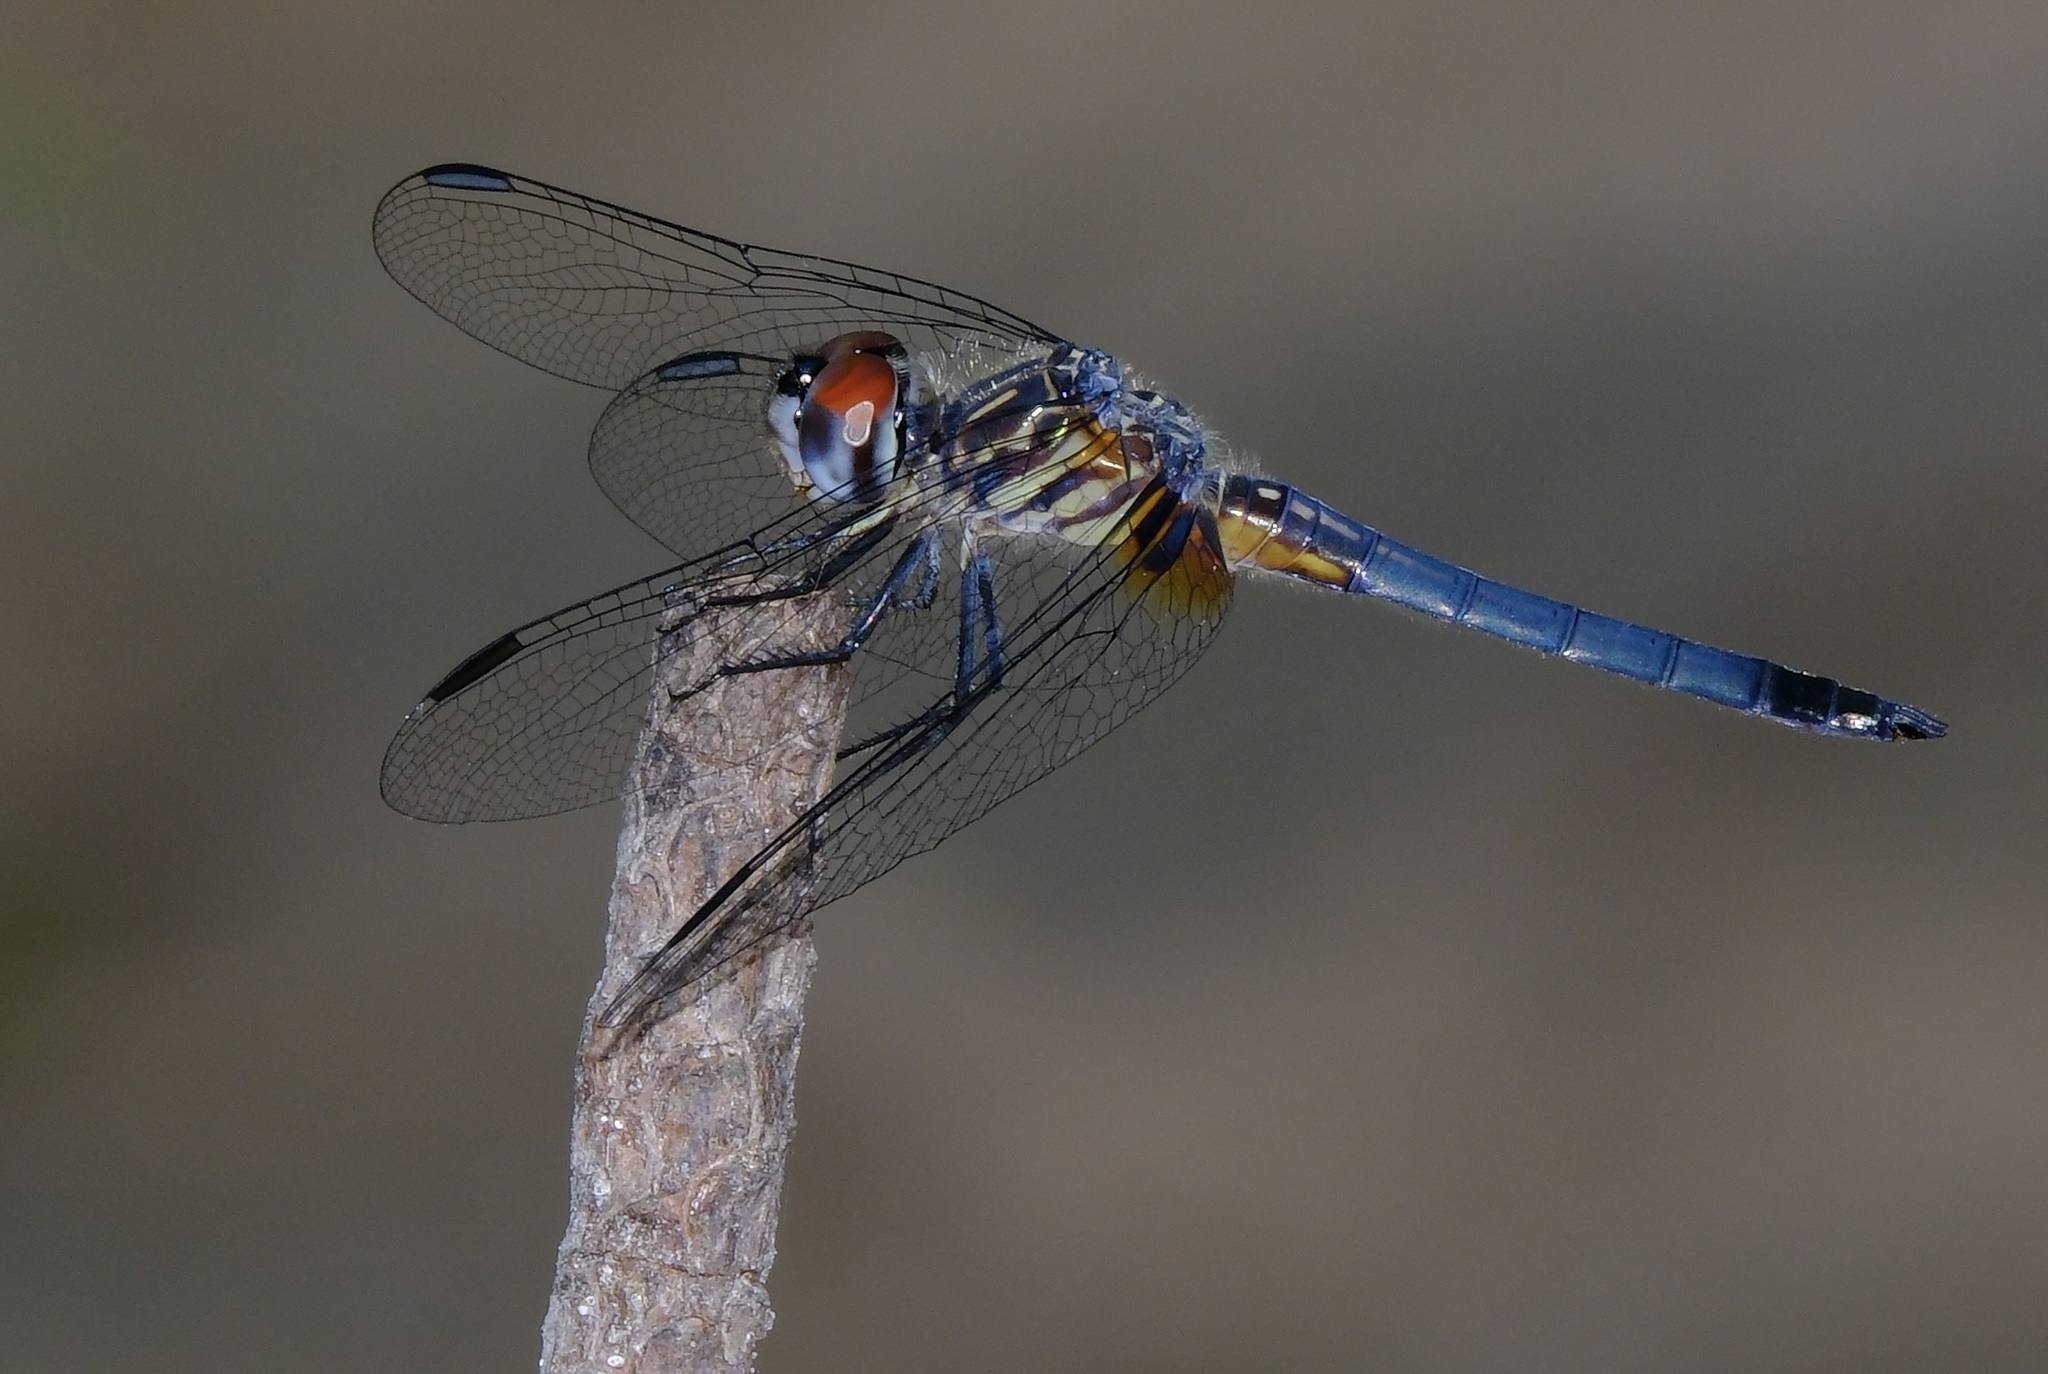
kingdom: Animalia
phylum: Arthropoda
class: Insecta
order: Odonata
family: Libellulidae
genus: Pachydiplax
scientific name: Pachydiplax longipennis
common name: Blue dasher
